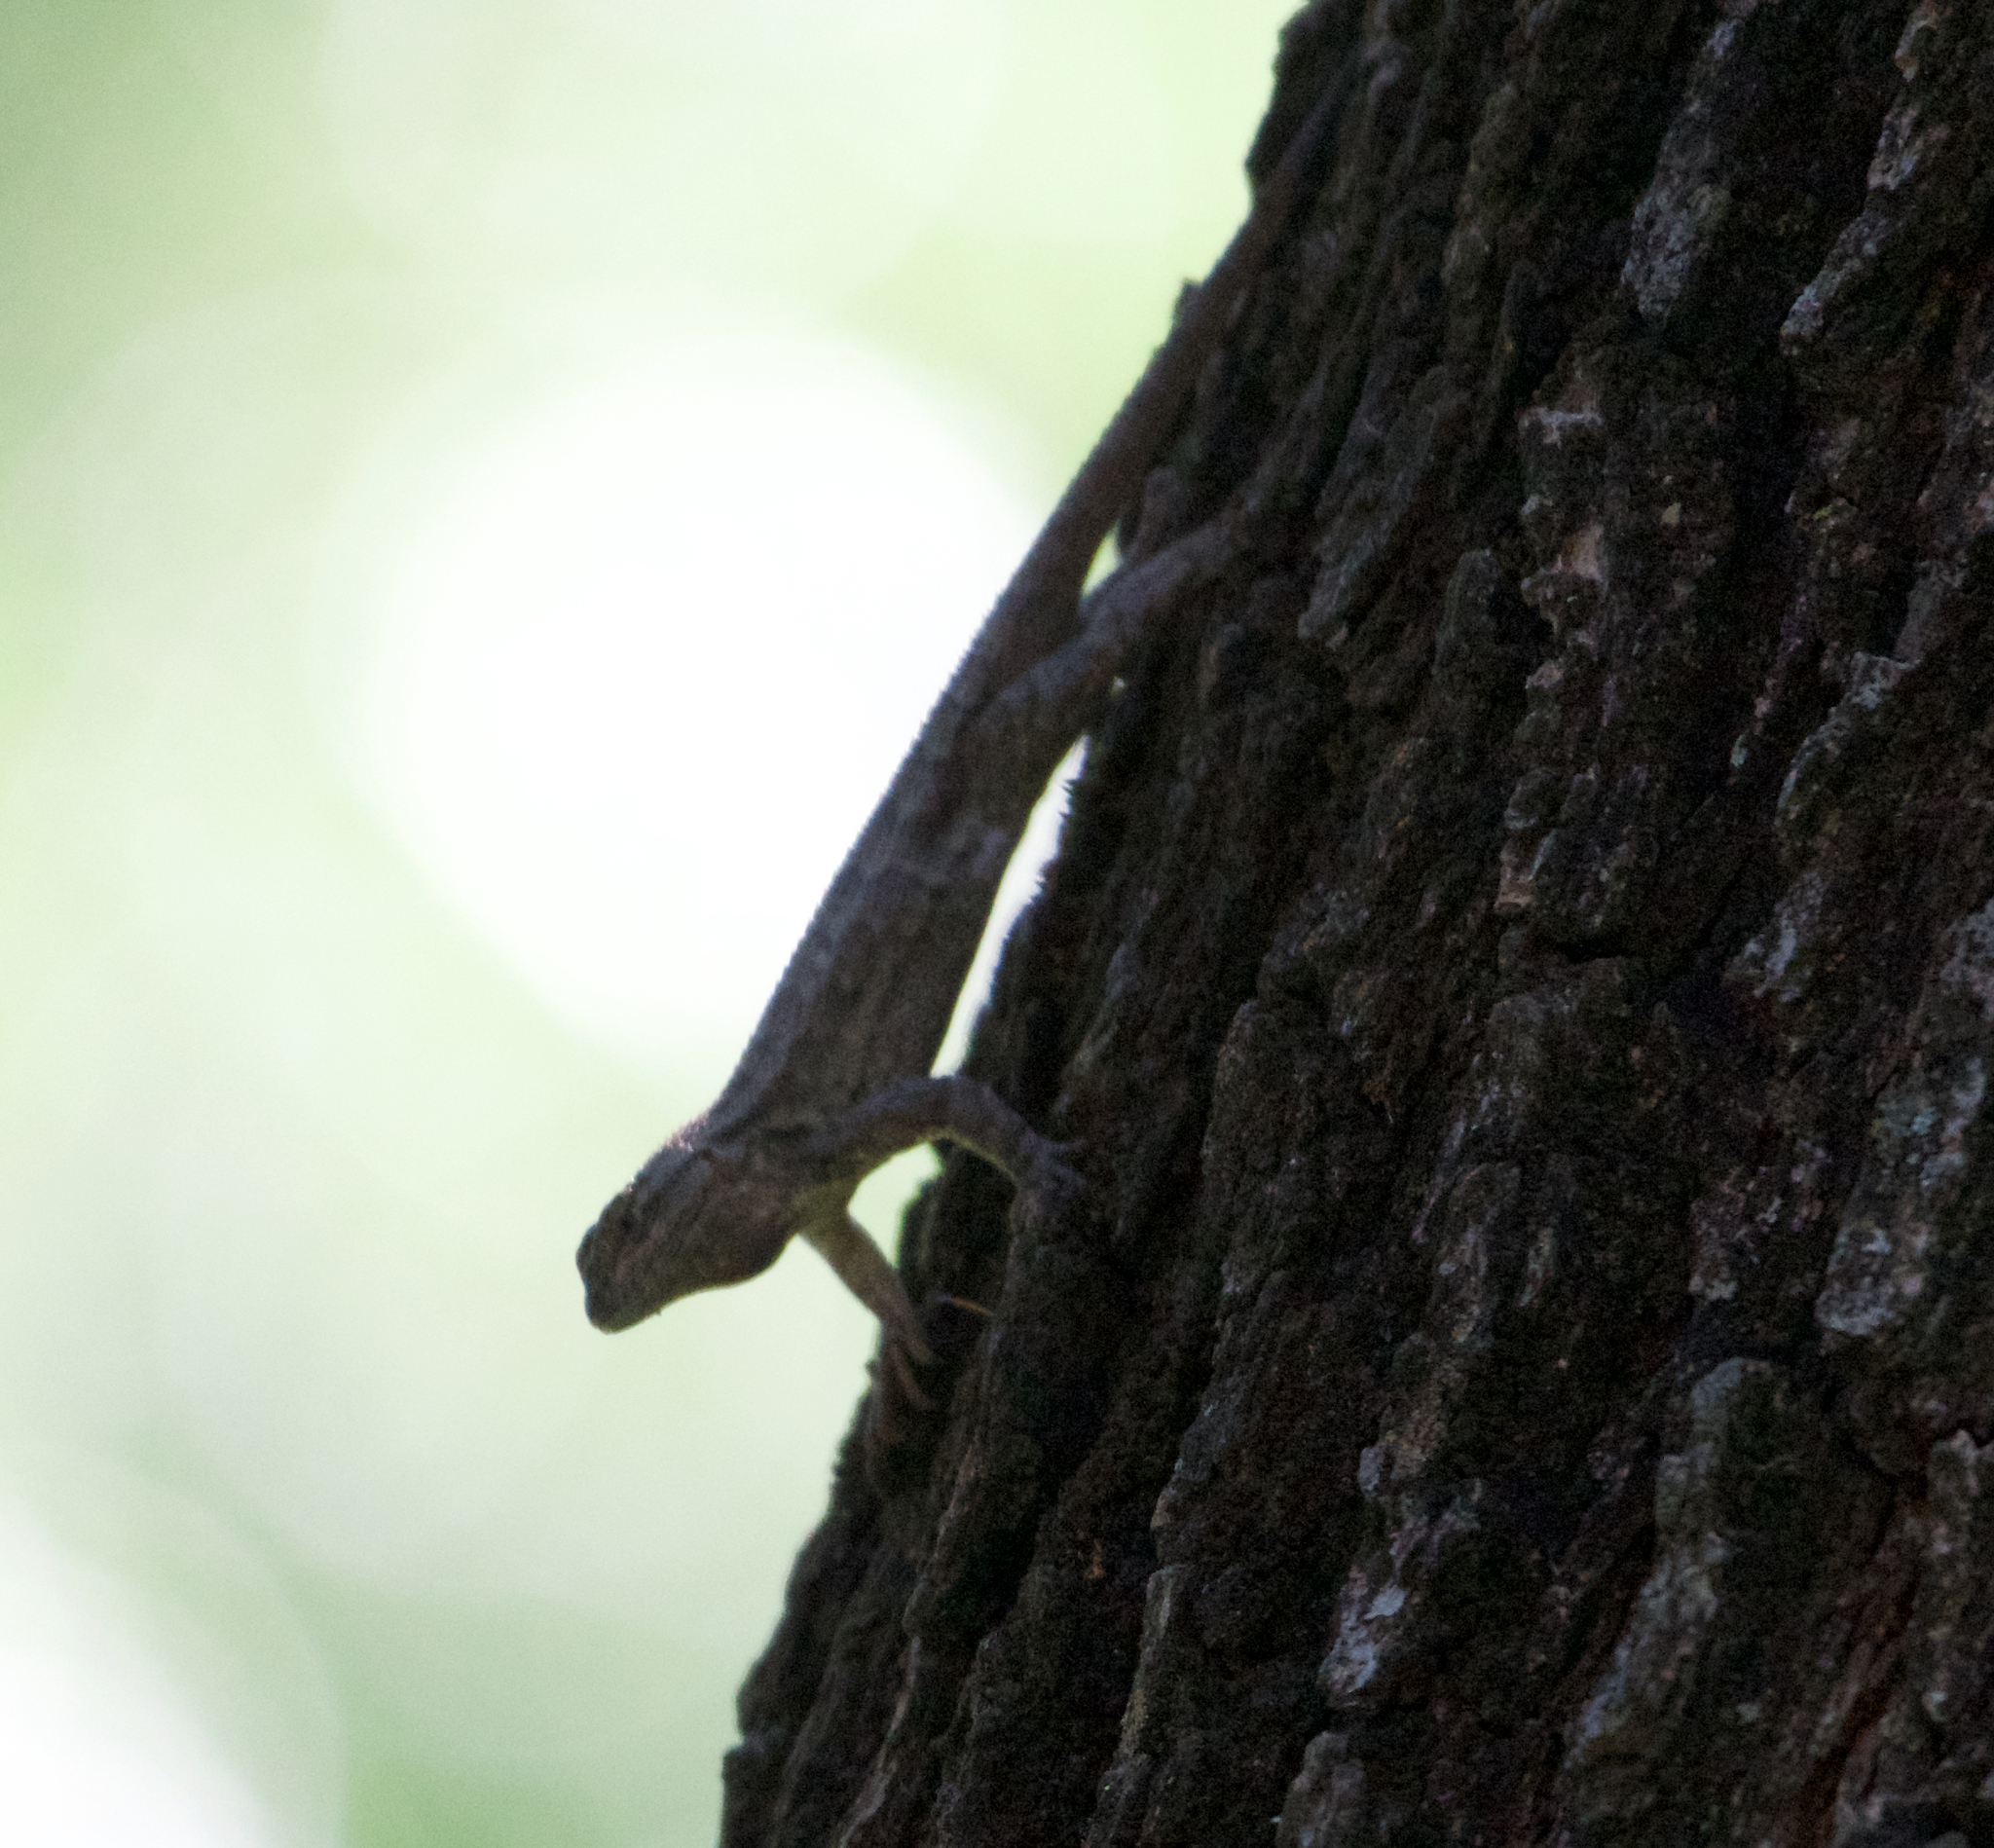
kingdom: Animalia
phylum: Chordata
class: Squamata
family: Phrynosomatidae
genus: Sceloporus
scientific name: Sceloporus occidentalis
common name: Western fence lizard
